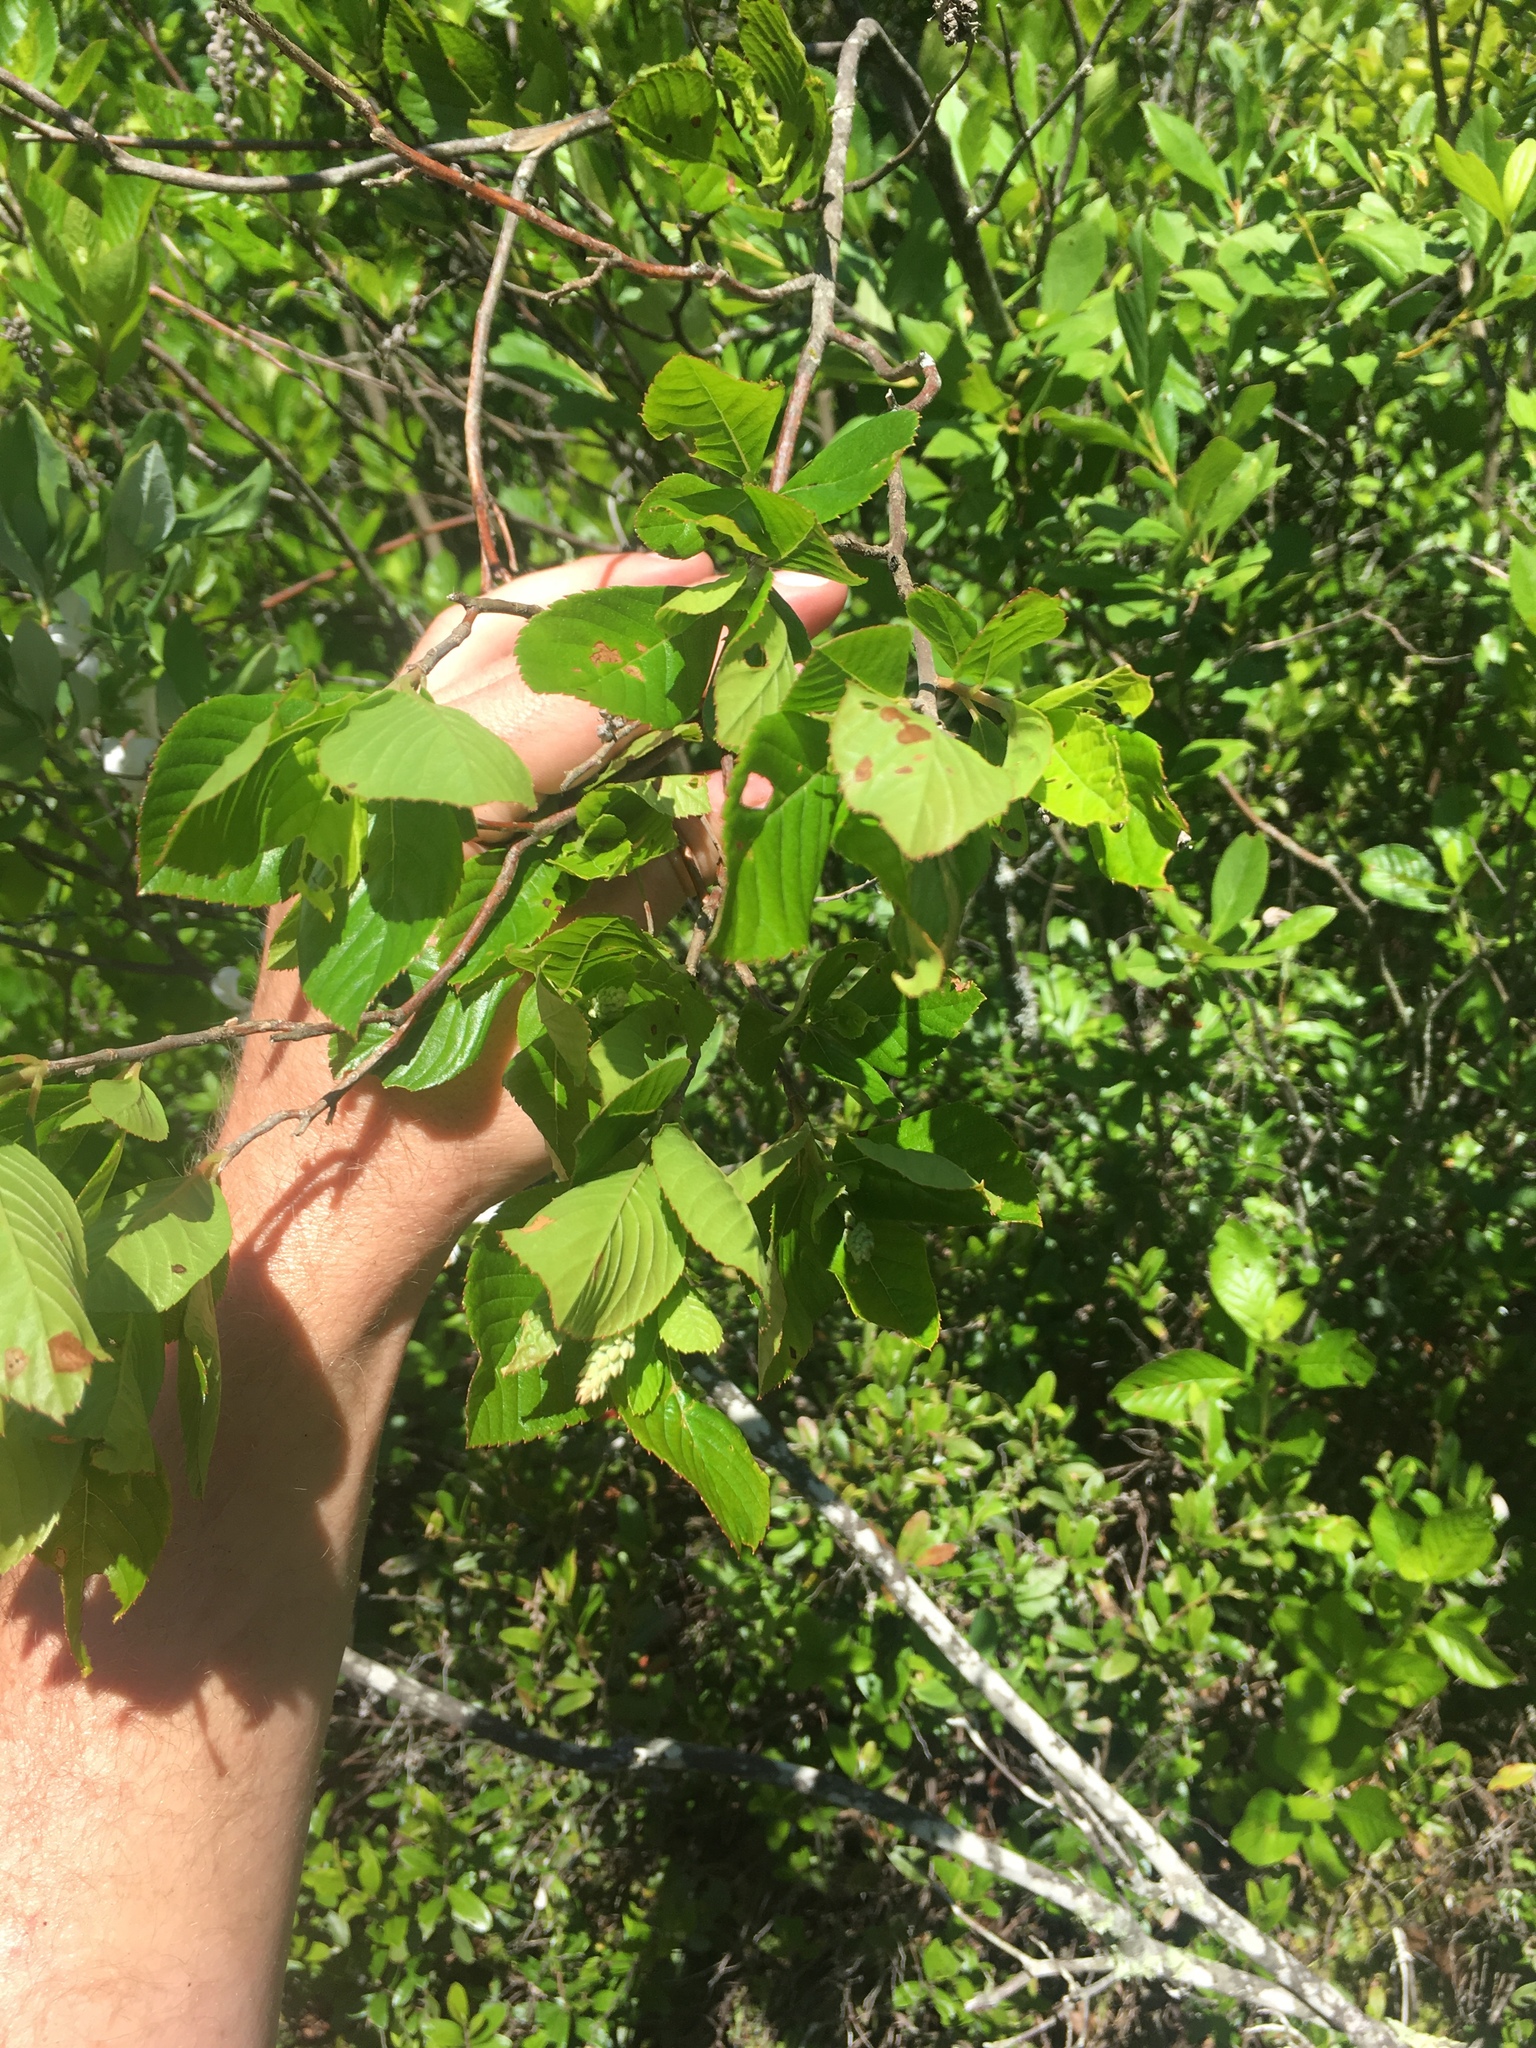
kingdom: Plantae
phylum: Tracheophyta
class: Magnoliopsida
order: Ericales
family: Clethraceae
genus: Clethra
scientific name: Clethra alnifolia
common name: Sweet pepperbush
